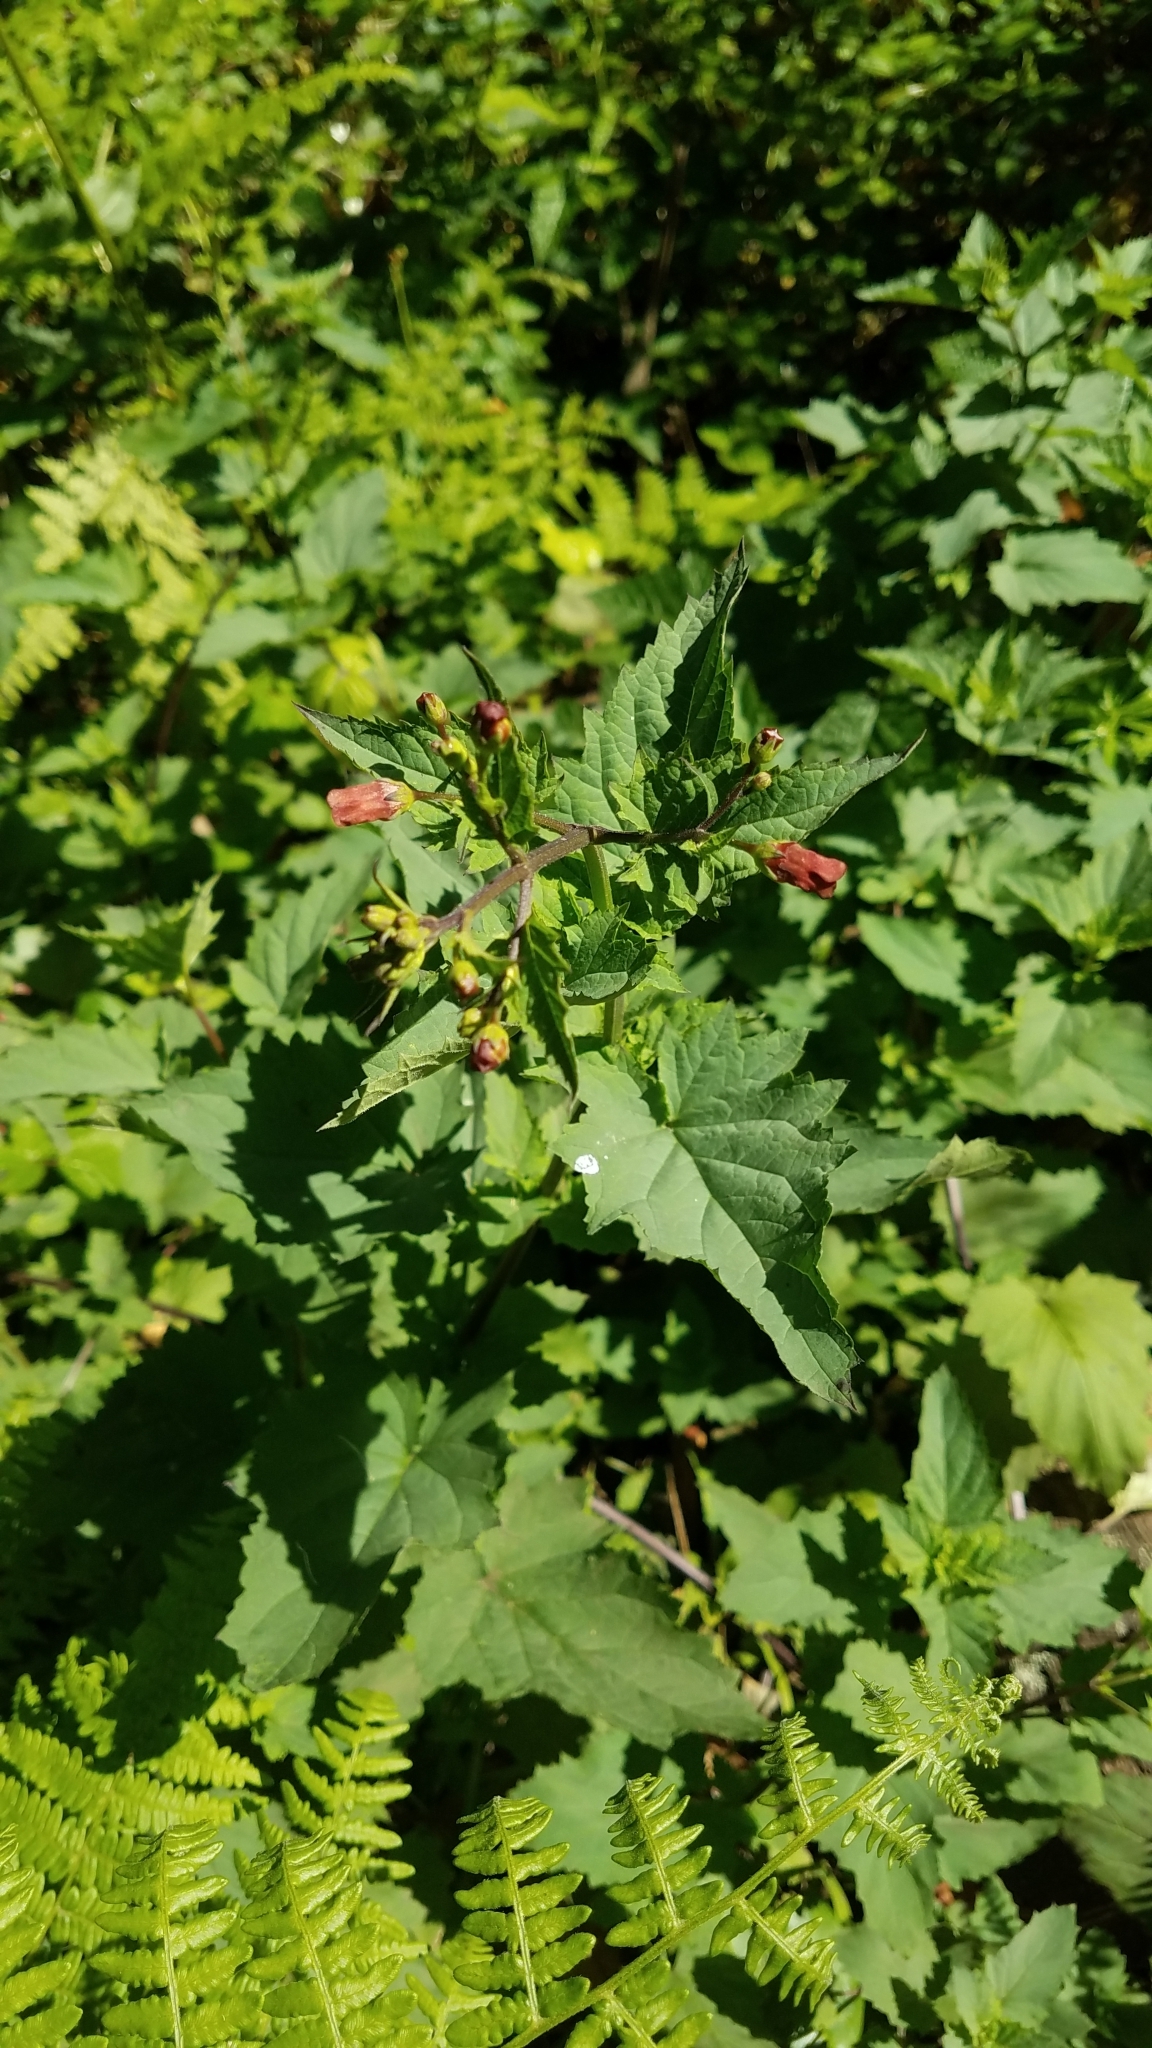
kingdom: Plantae
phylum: Tracheophyta
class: Magnoliopsida
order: Lamiales
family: Scrophulariaceae
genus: Scrophularia
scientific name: Scrophularia californica
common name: California figwort
